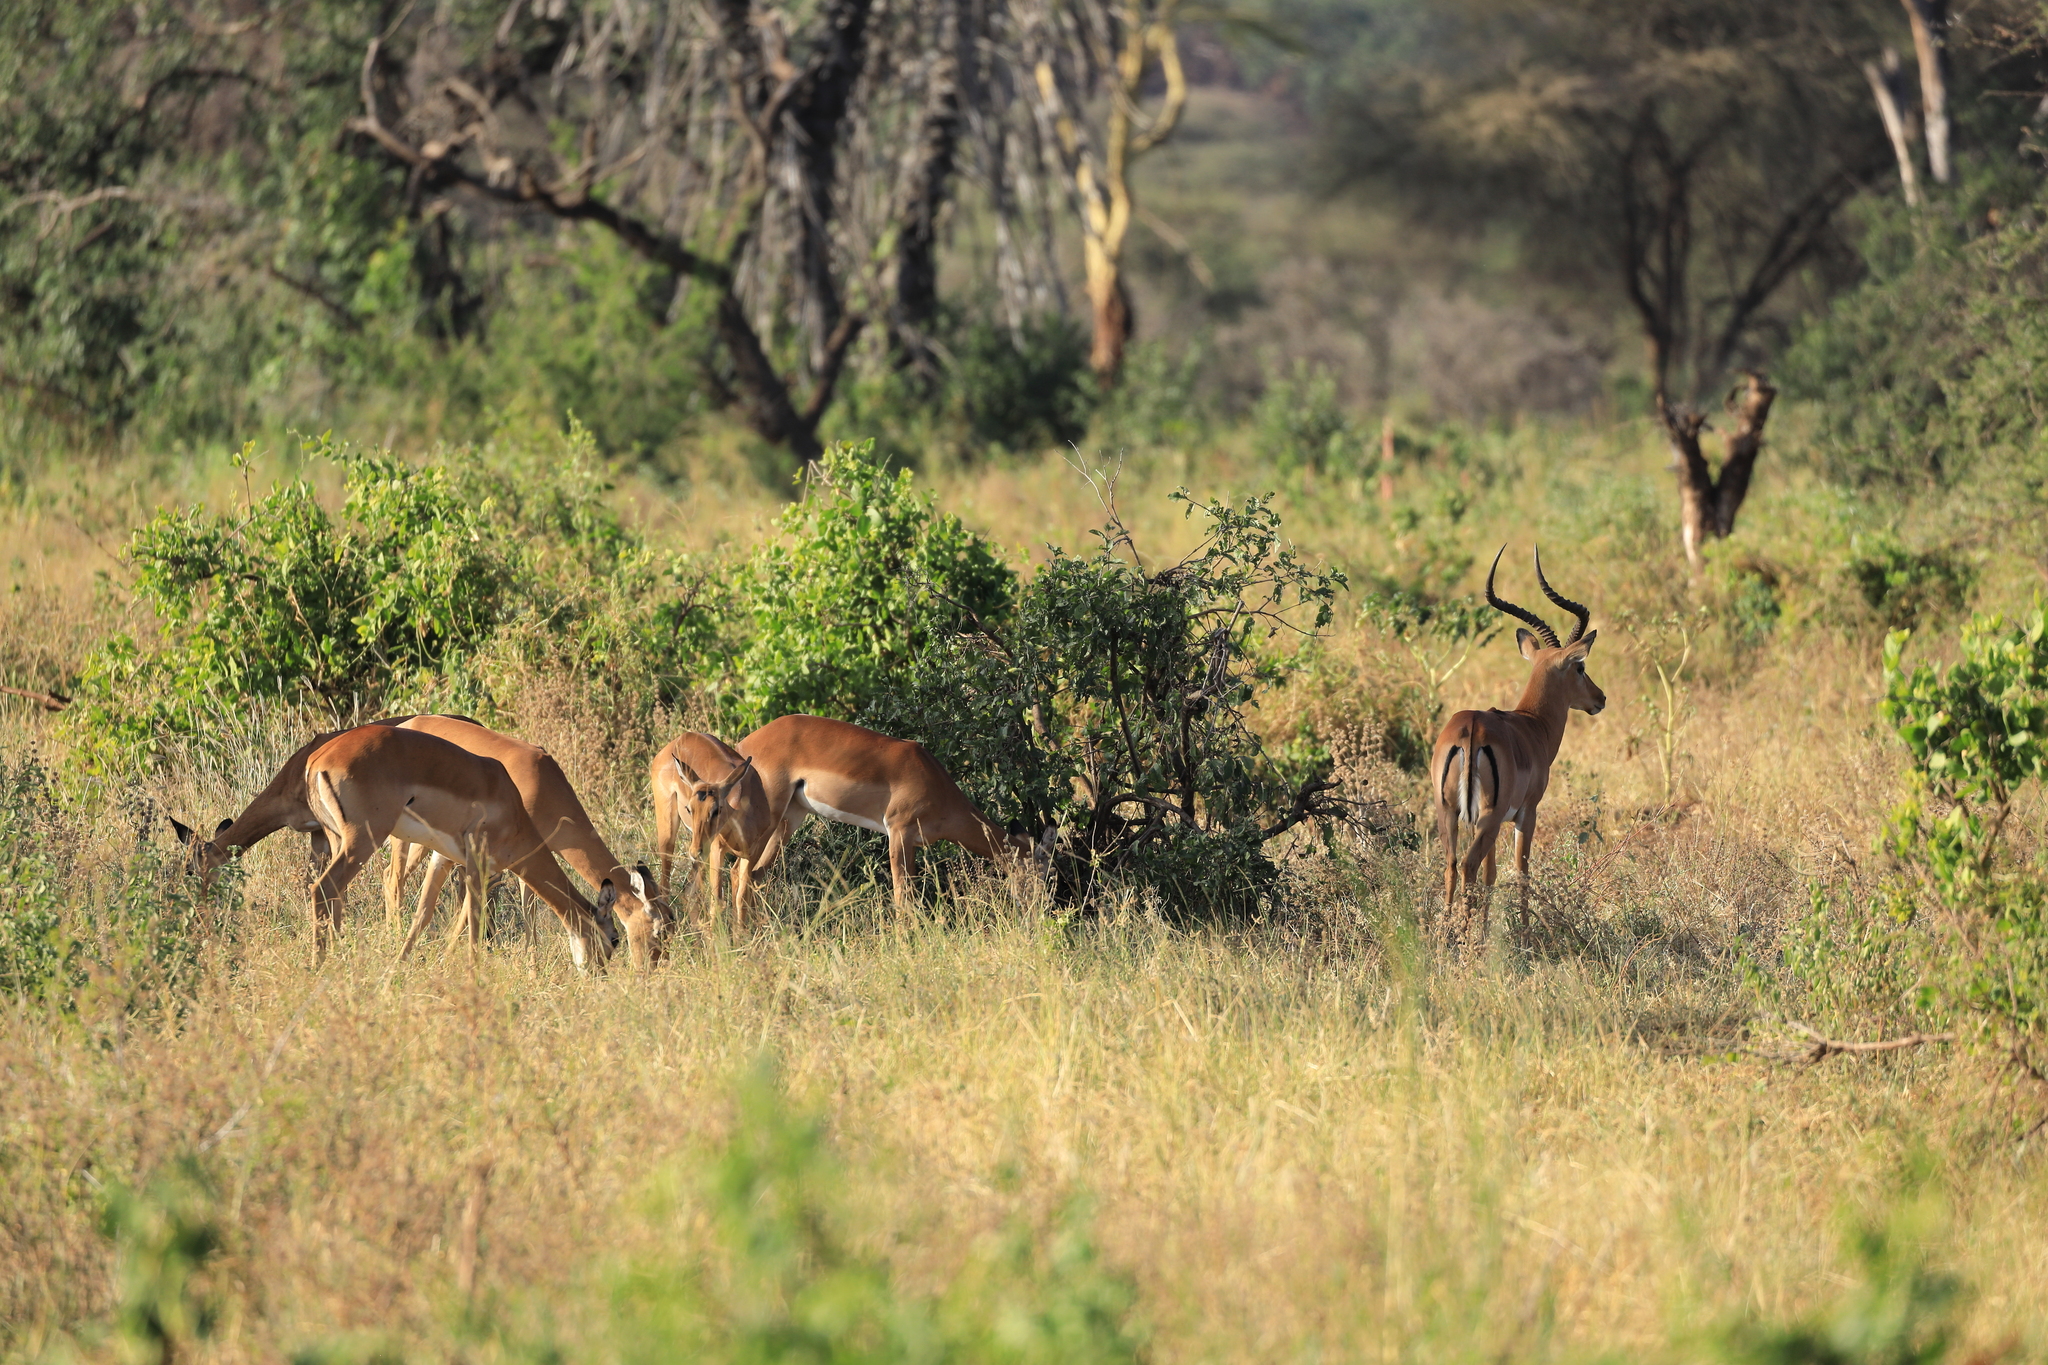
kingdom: Animalia
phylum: Chordata
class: Mammalia
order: Artiodactyla
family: Bovidae
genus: Aepyceros
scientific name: Aepyceros melampus
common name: Impala
